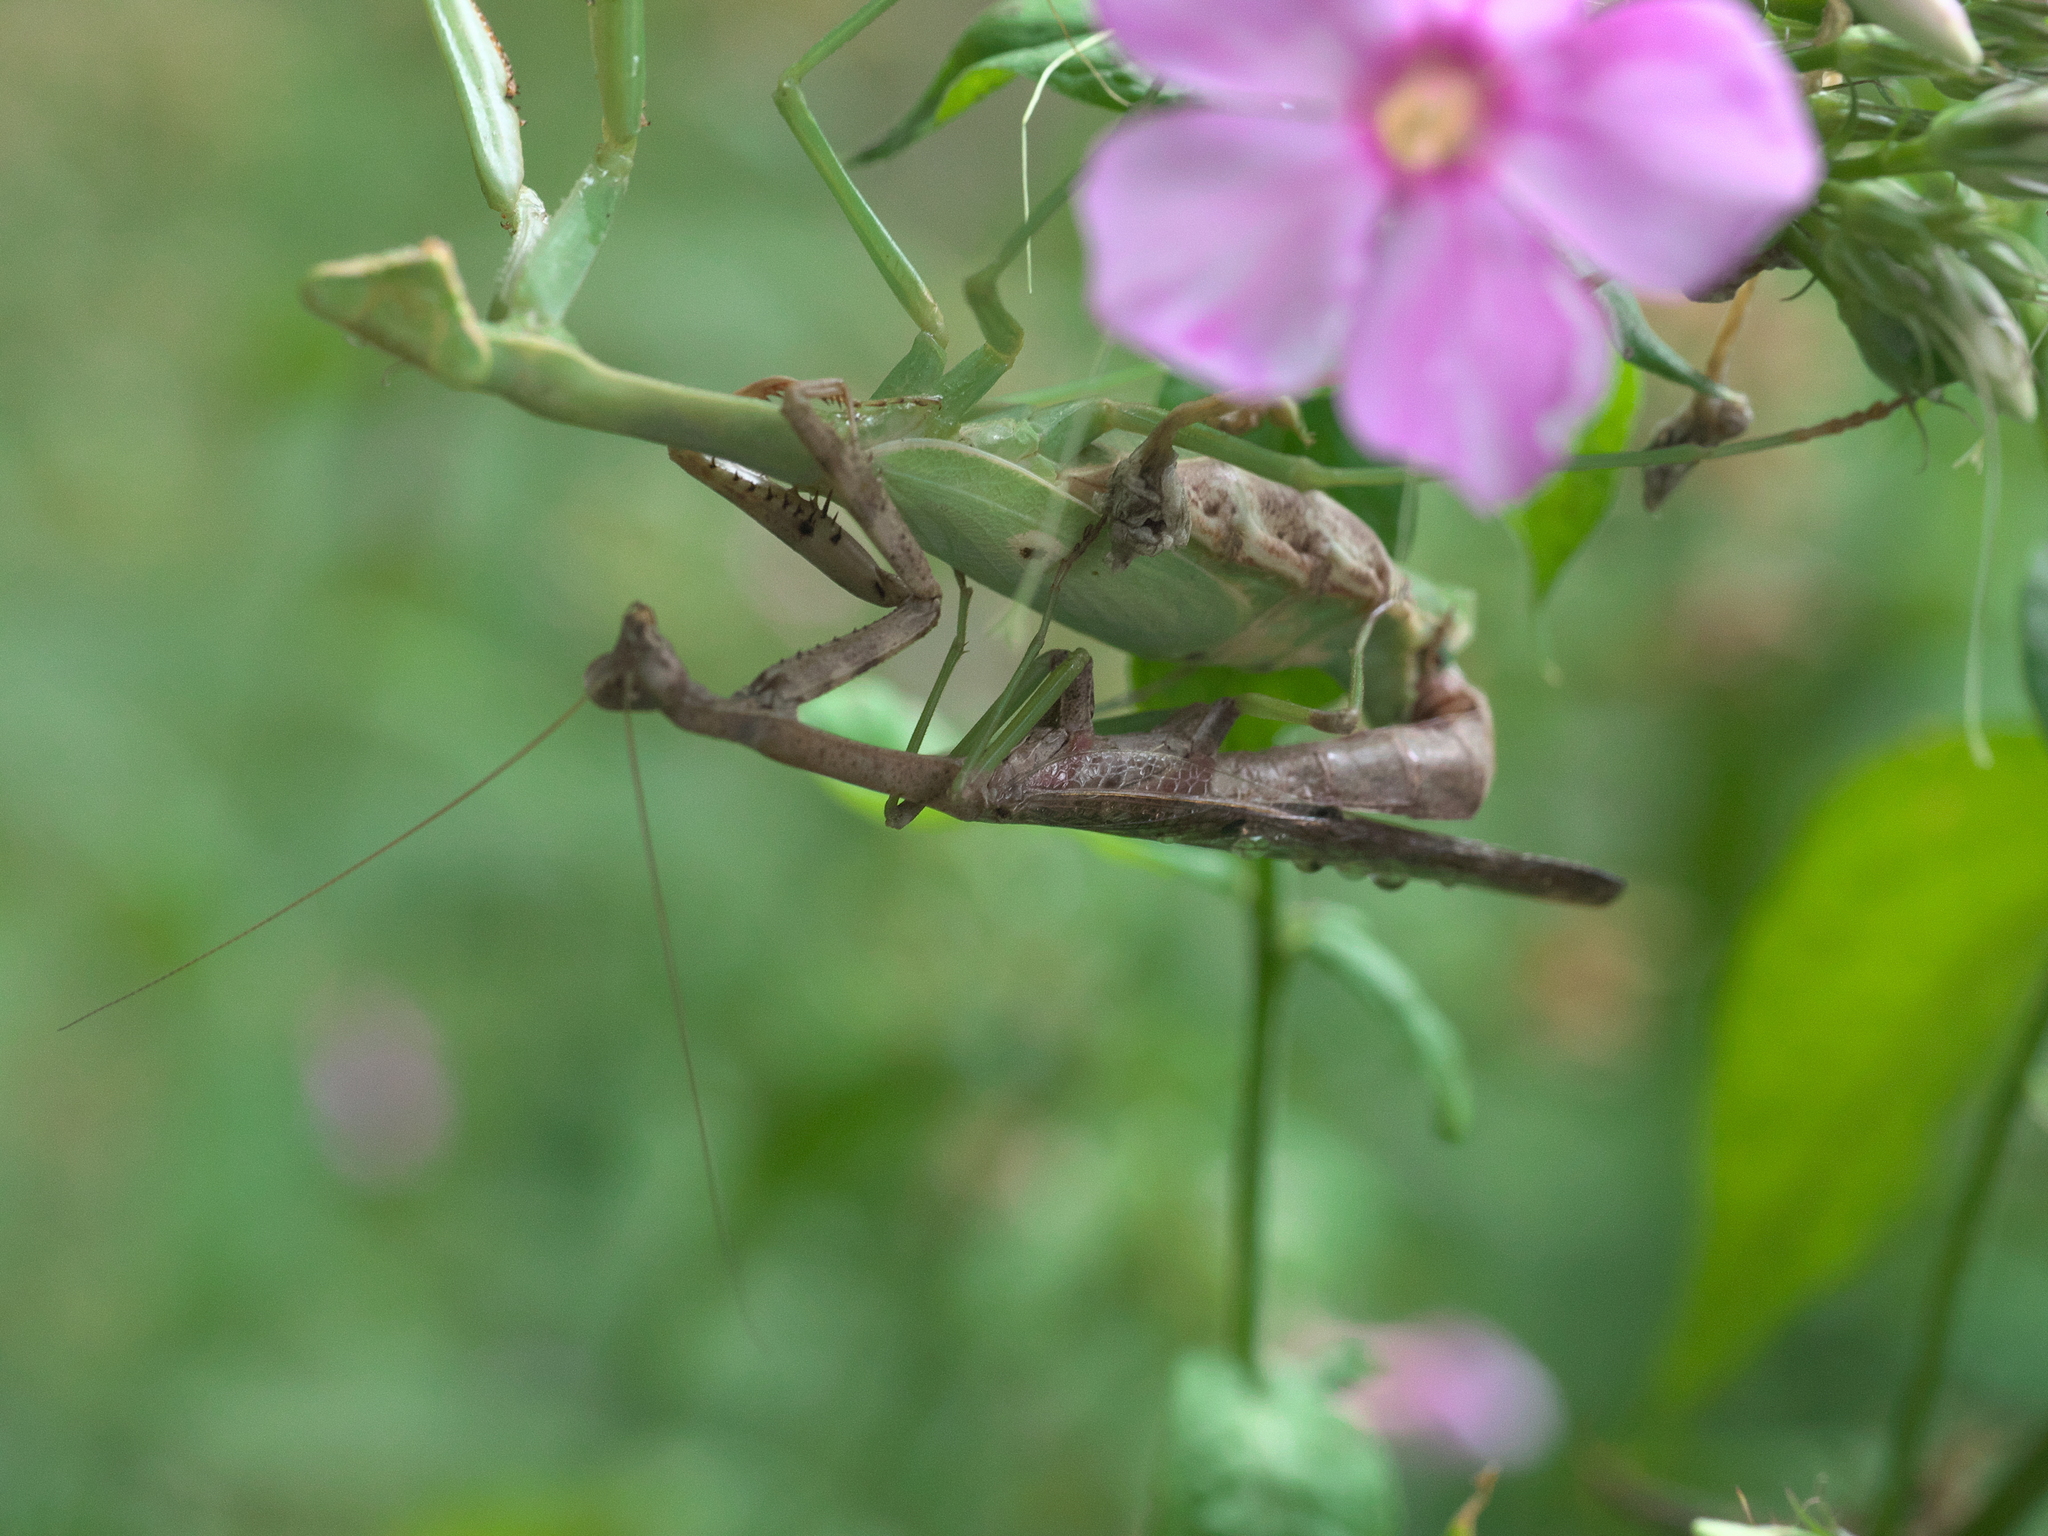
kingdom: Animalia
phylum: Arthropoda
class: Insecta
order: Mantodea
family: Mantidae
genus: Stagmomantis
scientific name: Stagmomantis carolina
